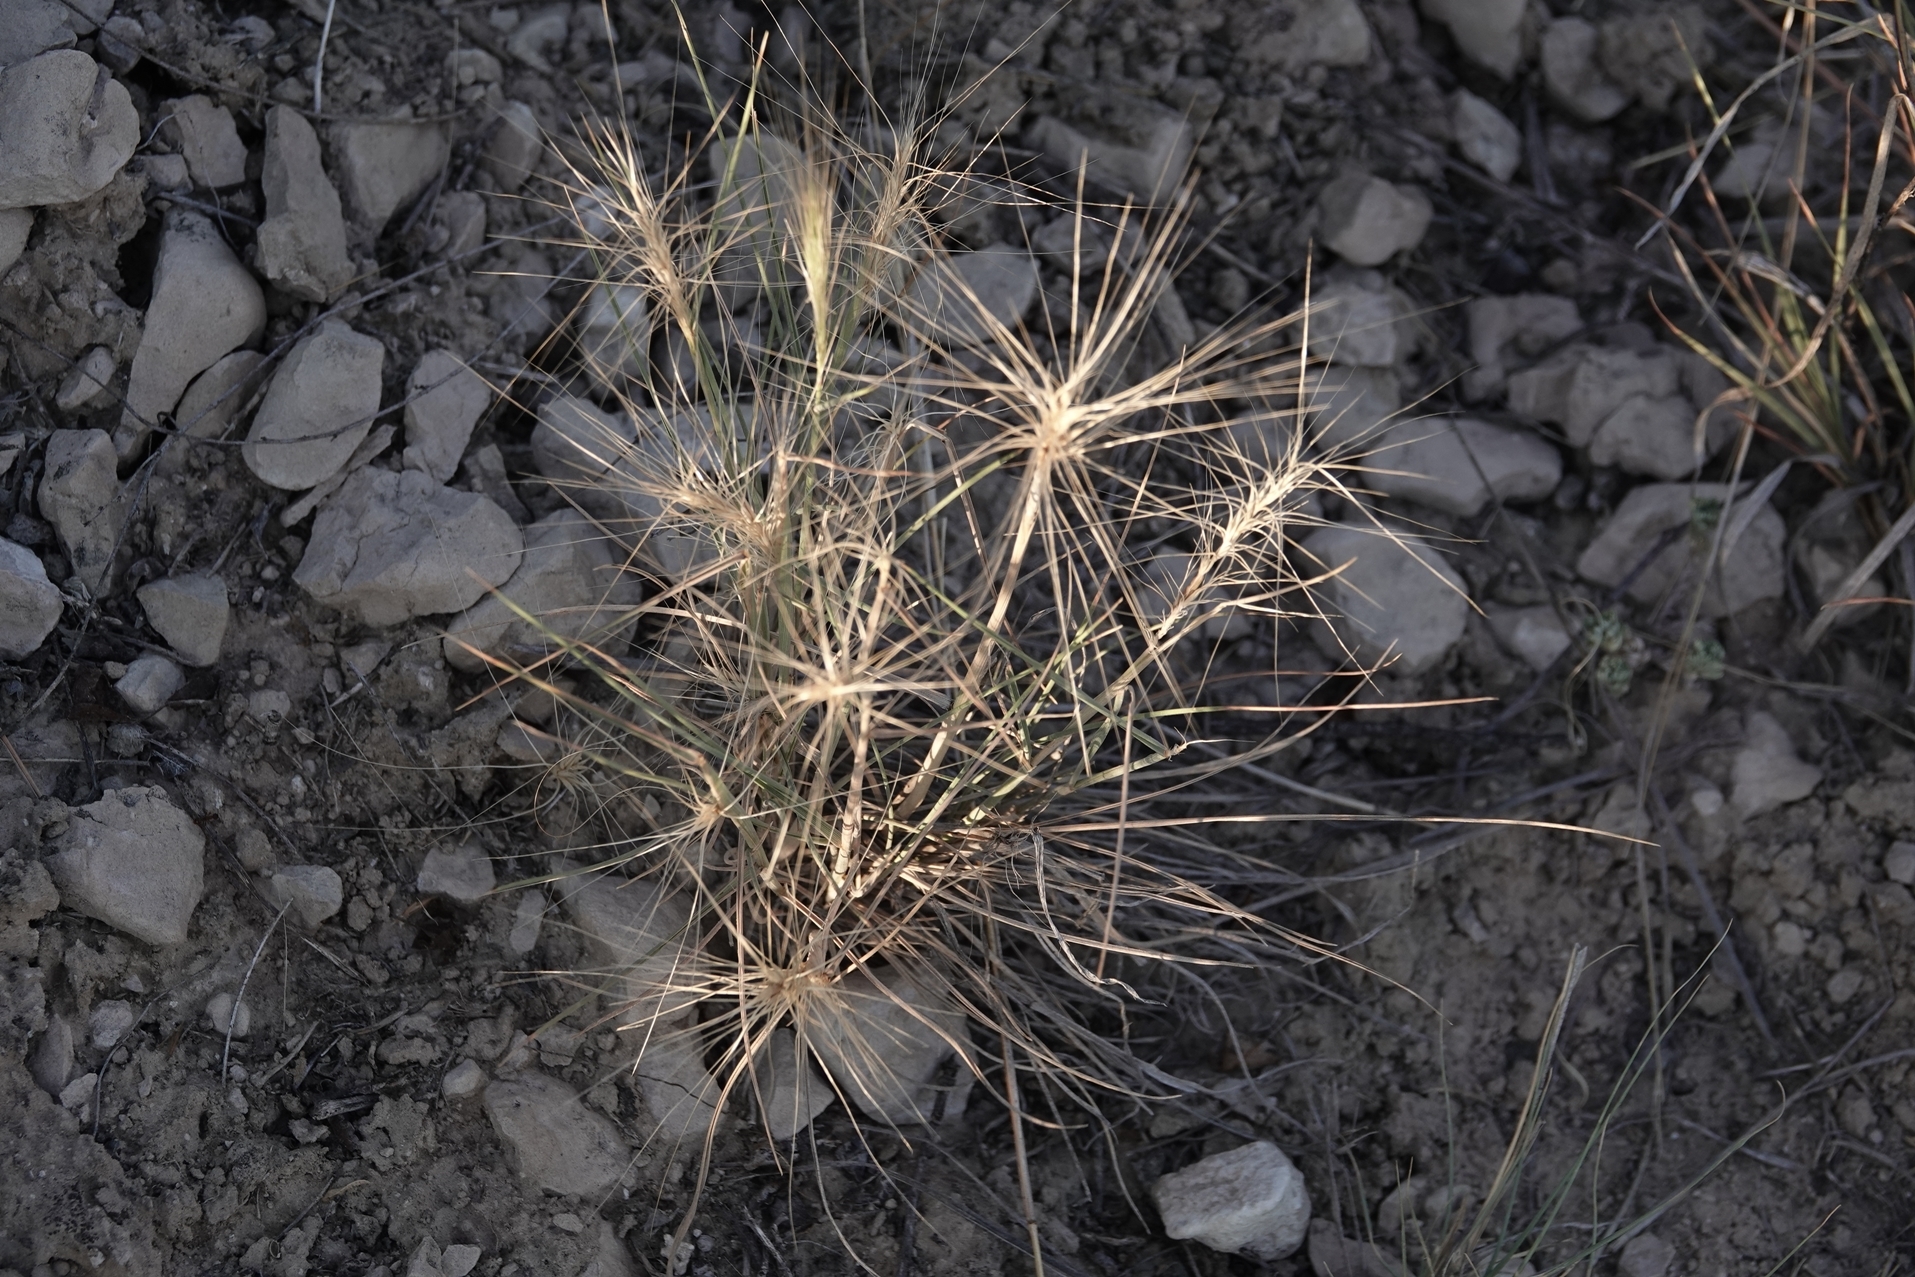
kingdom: Plantae
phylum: Tracheophyta
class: Liliopsida
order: Poales
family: Poaceae
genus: Elymus
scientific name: Elymus elymoides
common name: Bottlebrush squirreltail
